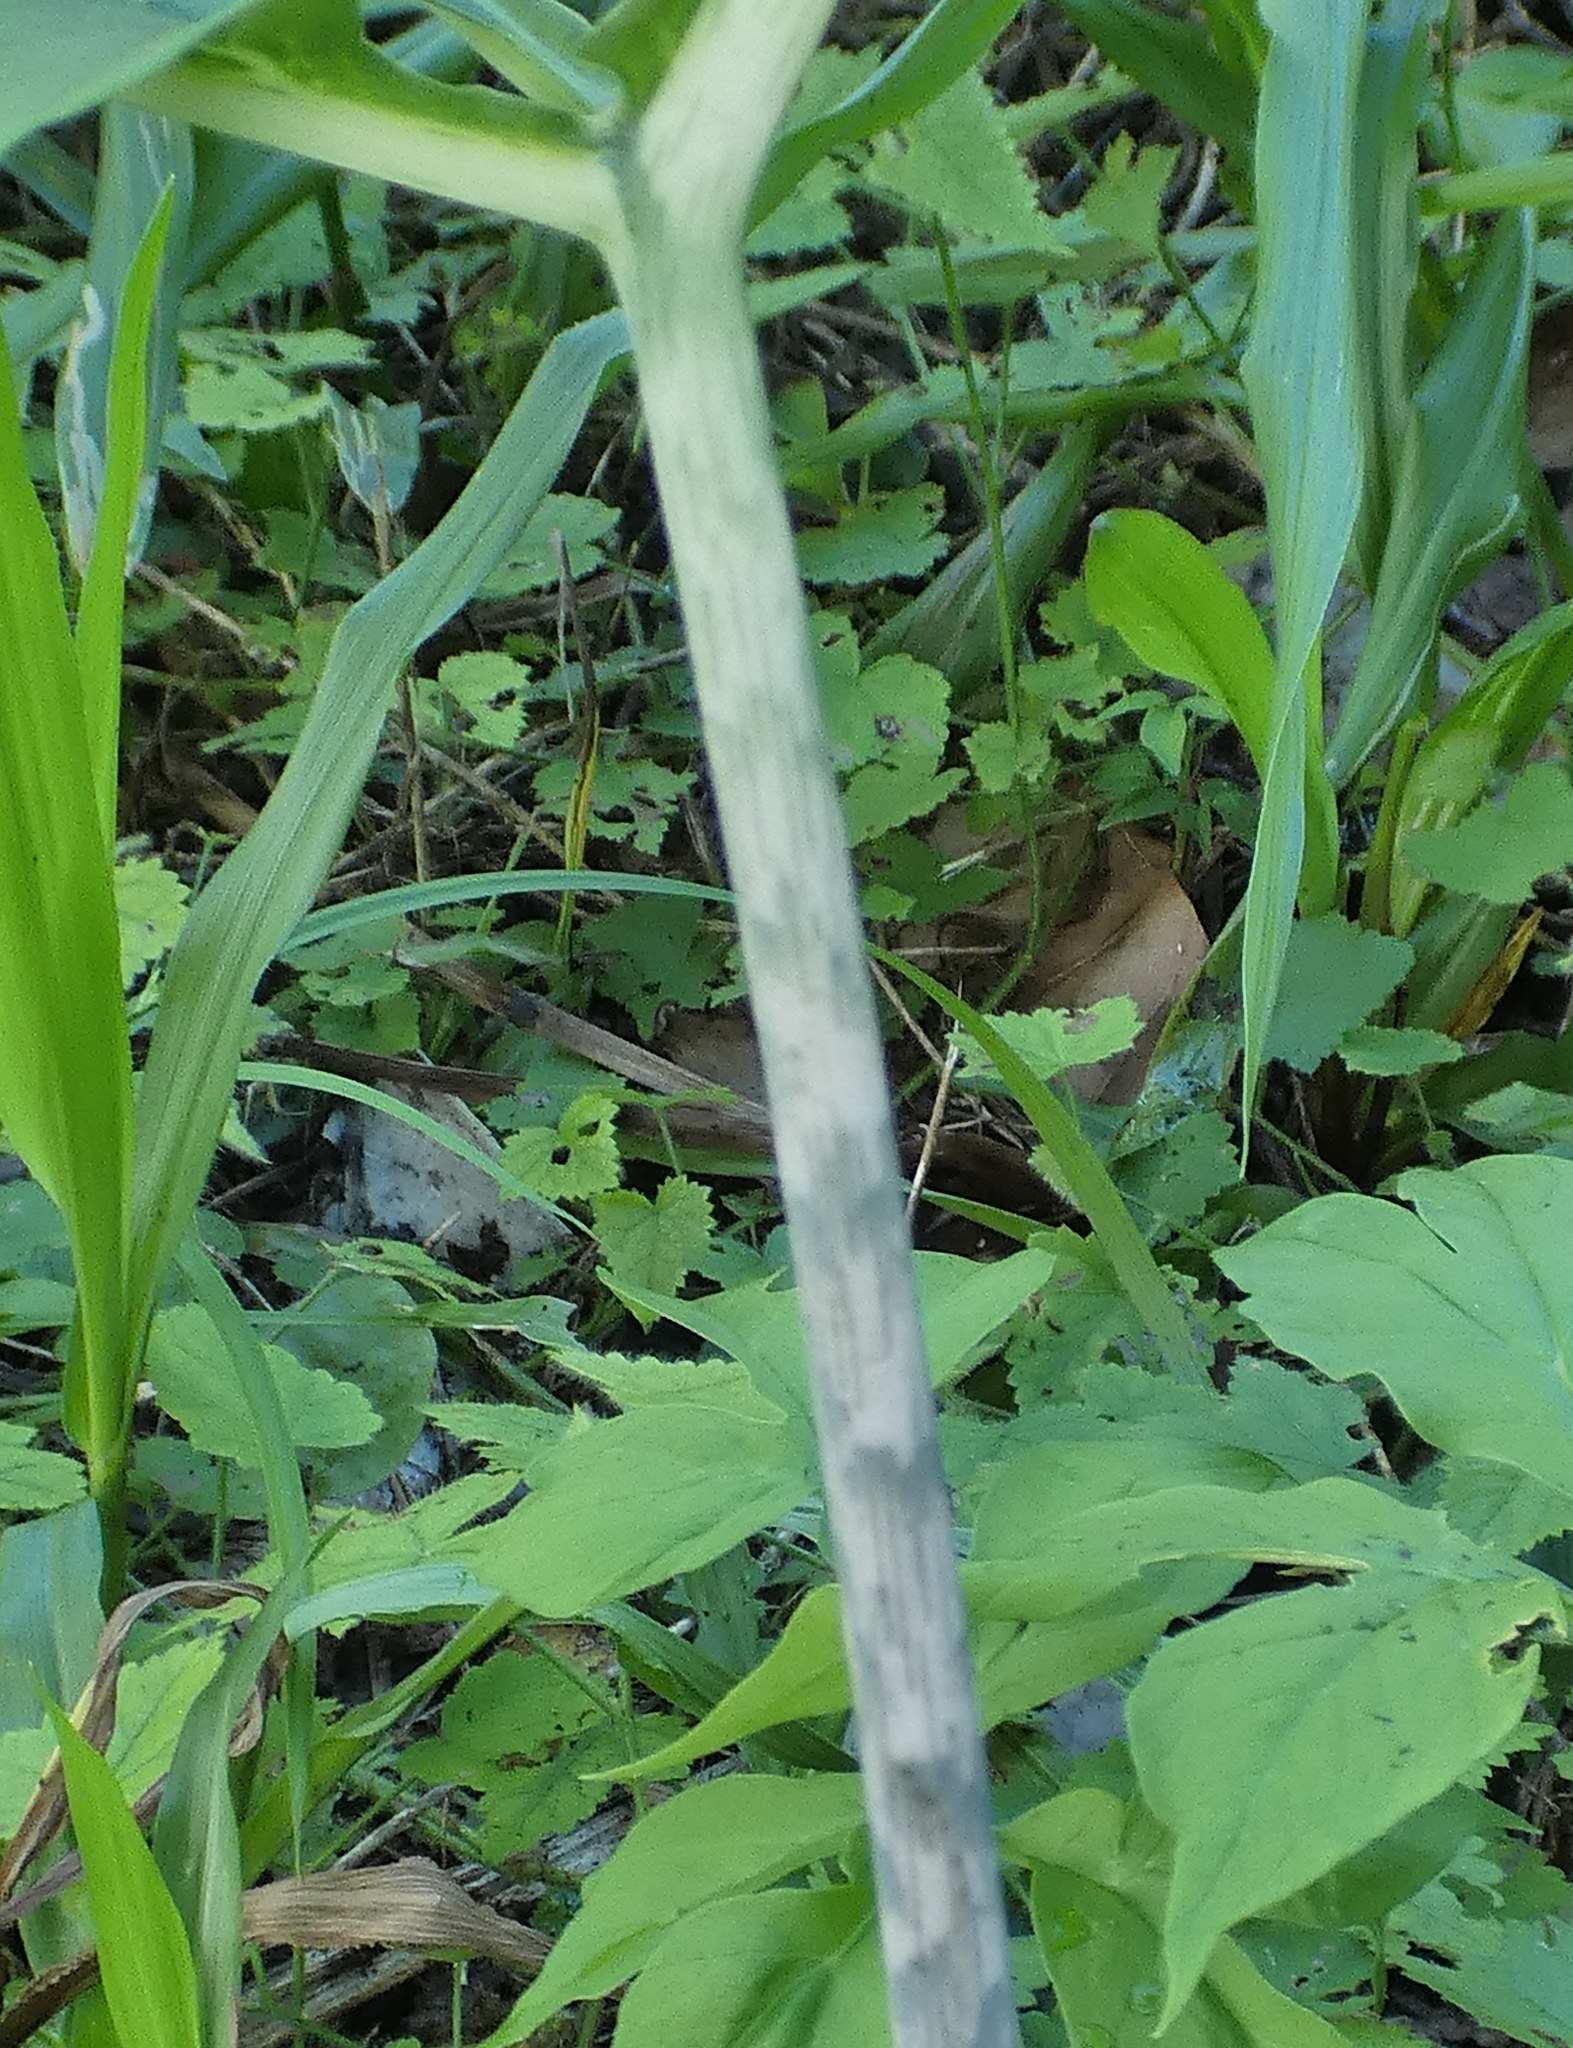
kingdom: Plantae
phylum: Tracheophyta
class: Liliopsida
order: Alismatales
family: Araceae
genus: Taccarum
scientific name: Taccarum ulei
